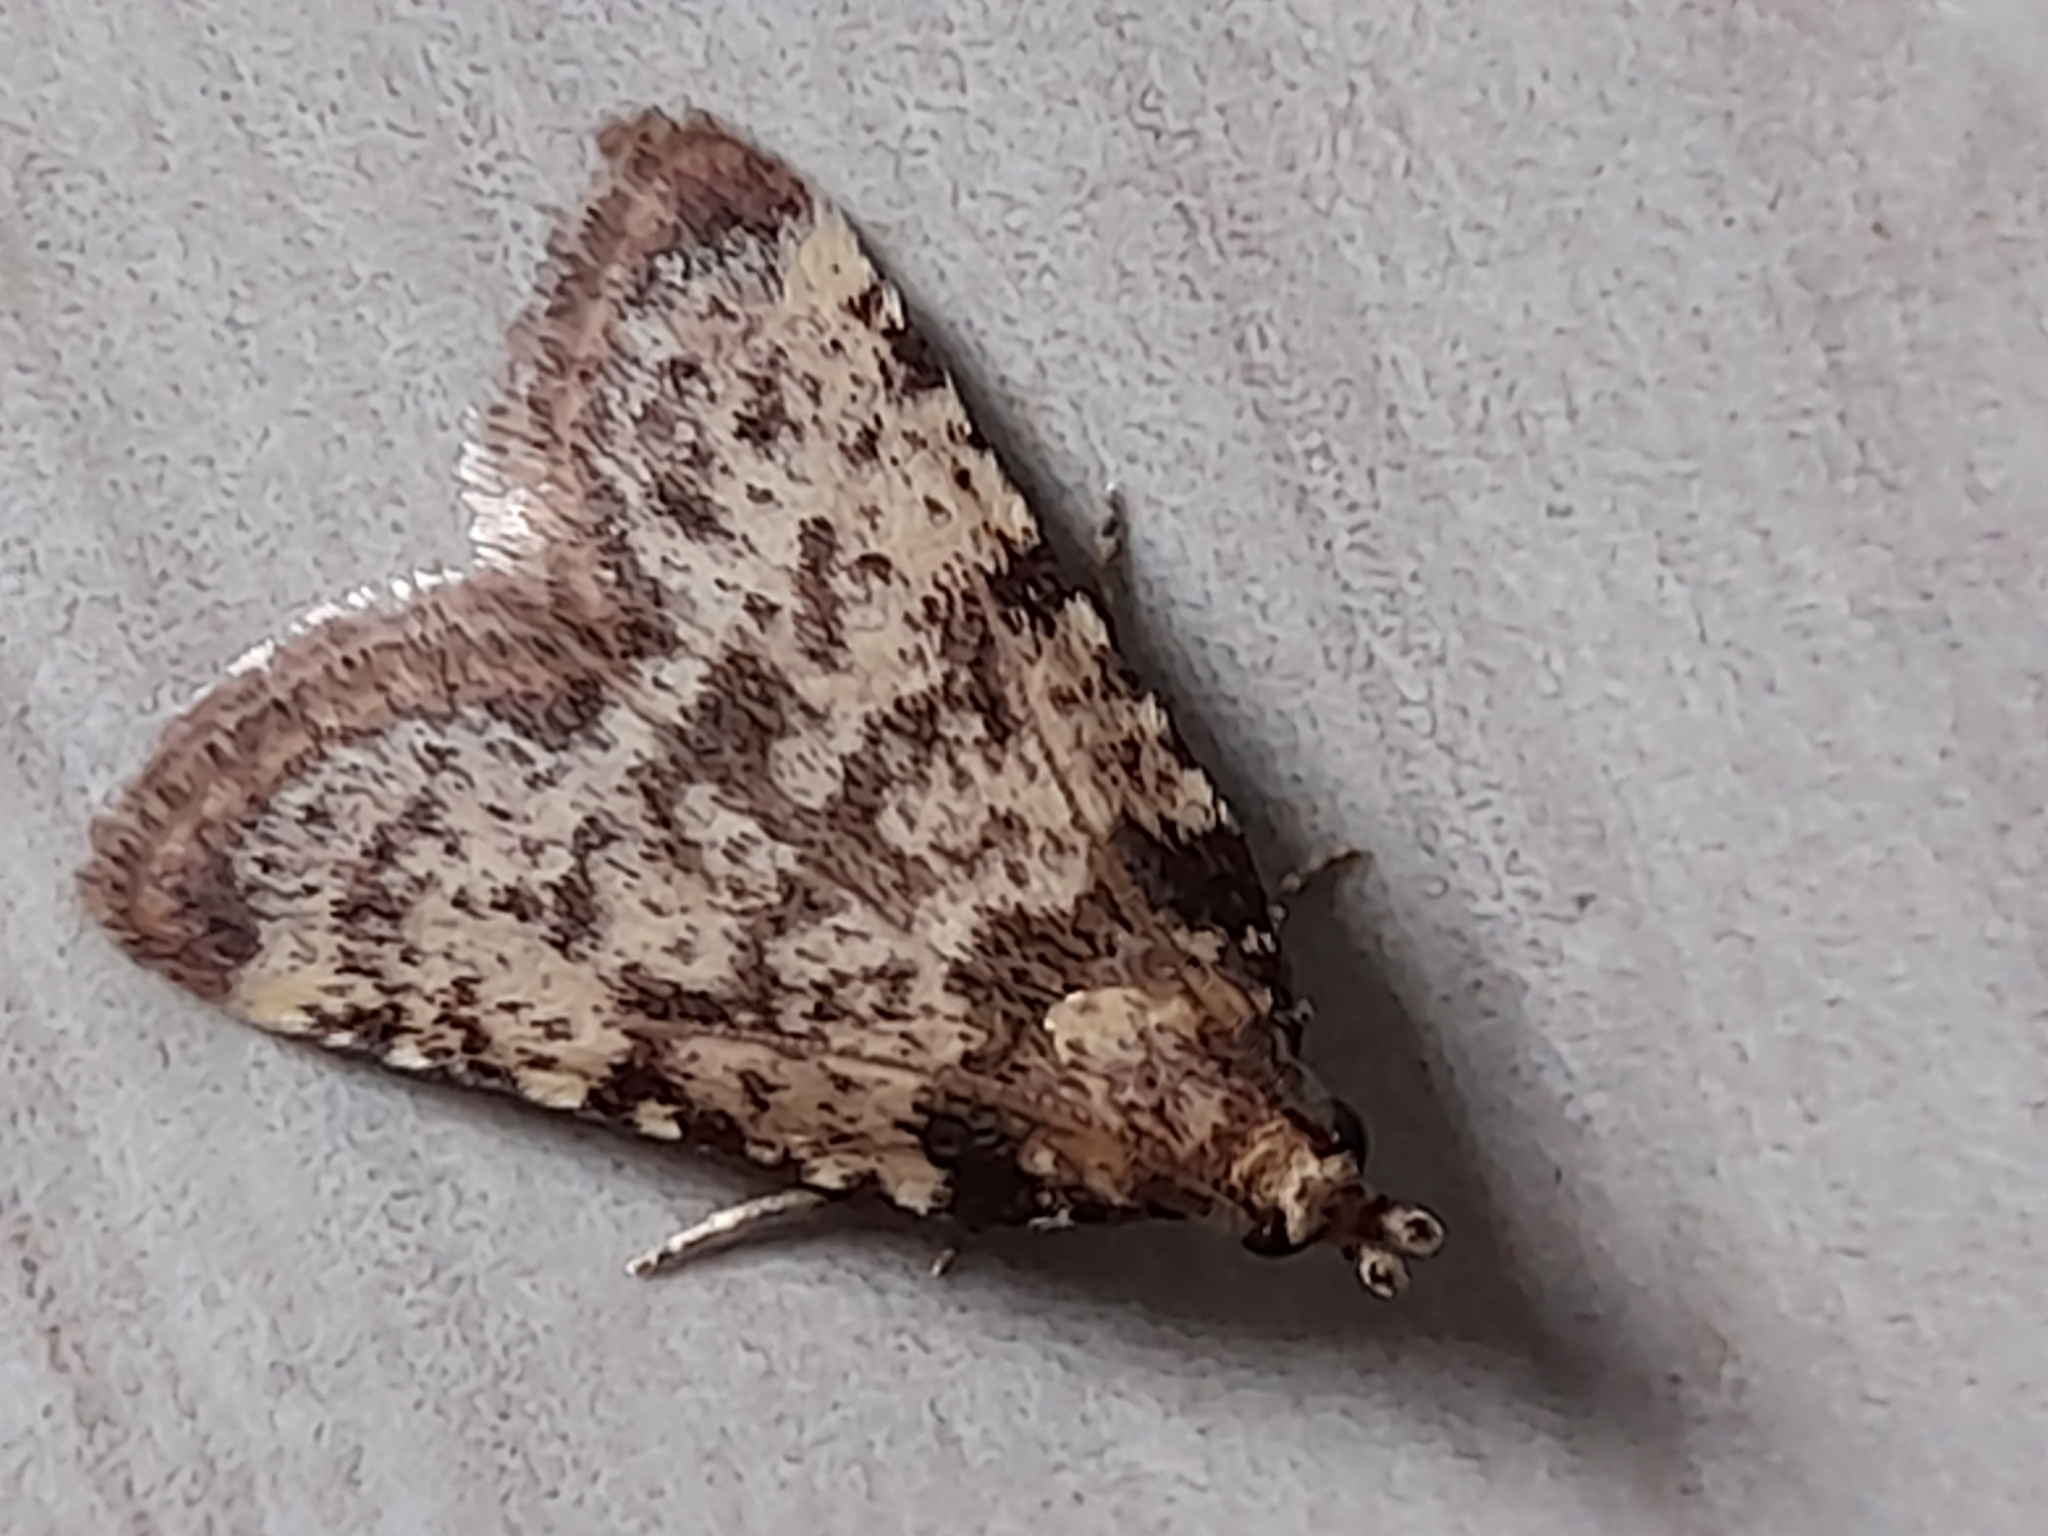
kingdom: Animalia
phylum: Arthropoda
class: Insecta
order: Lepidoptera
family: Pyralidae
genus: Aglossa
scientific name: Aglossa brabanti
